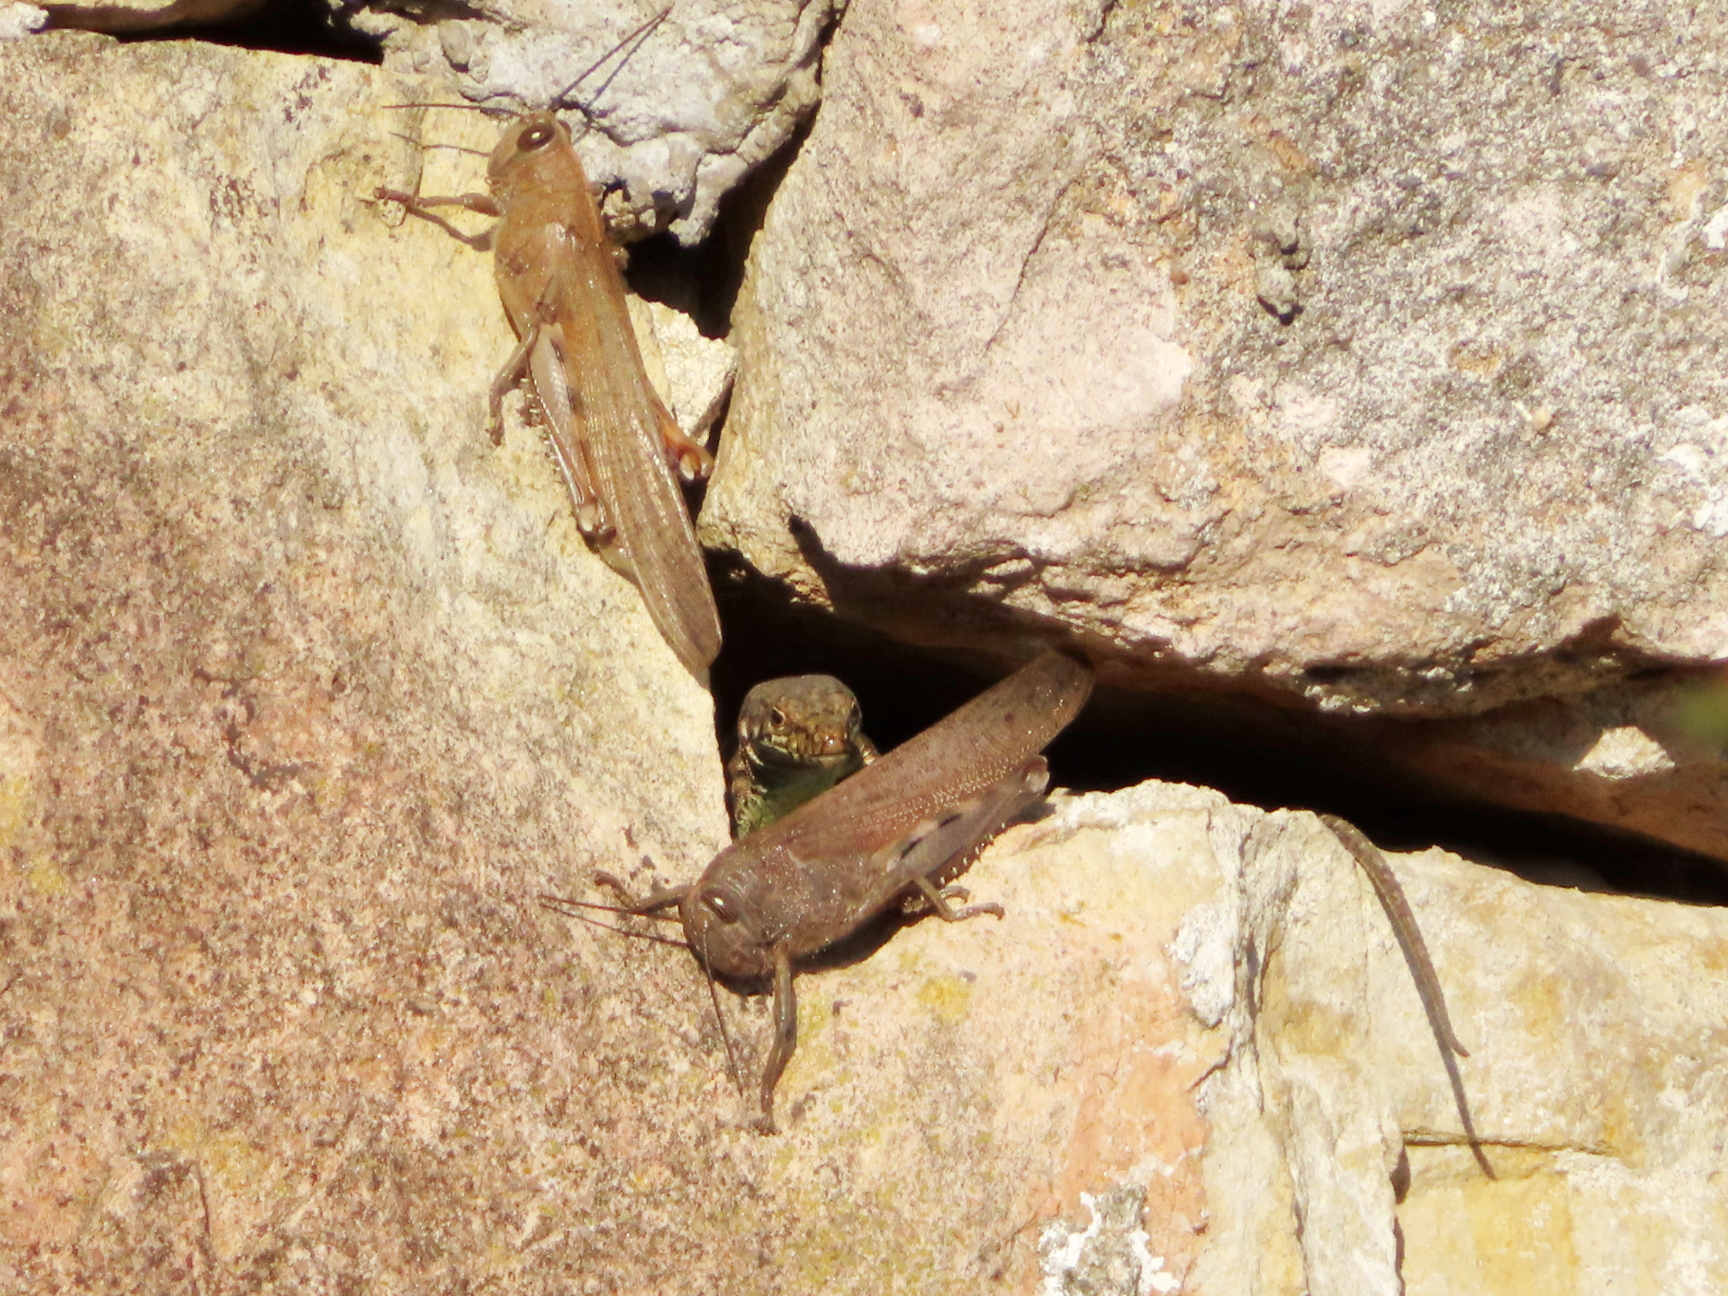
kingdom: Animalia
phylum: Chordata
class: Squamata
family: Lacertidae
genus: Darevskia
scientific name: Darevskia rudis
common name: Spiny-tailed lizard
